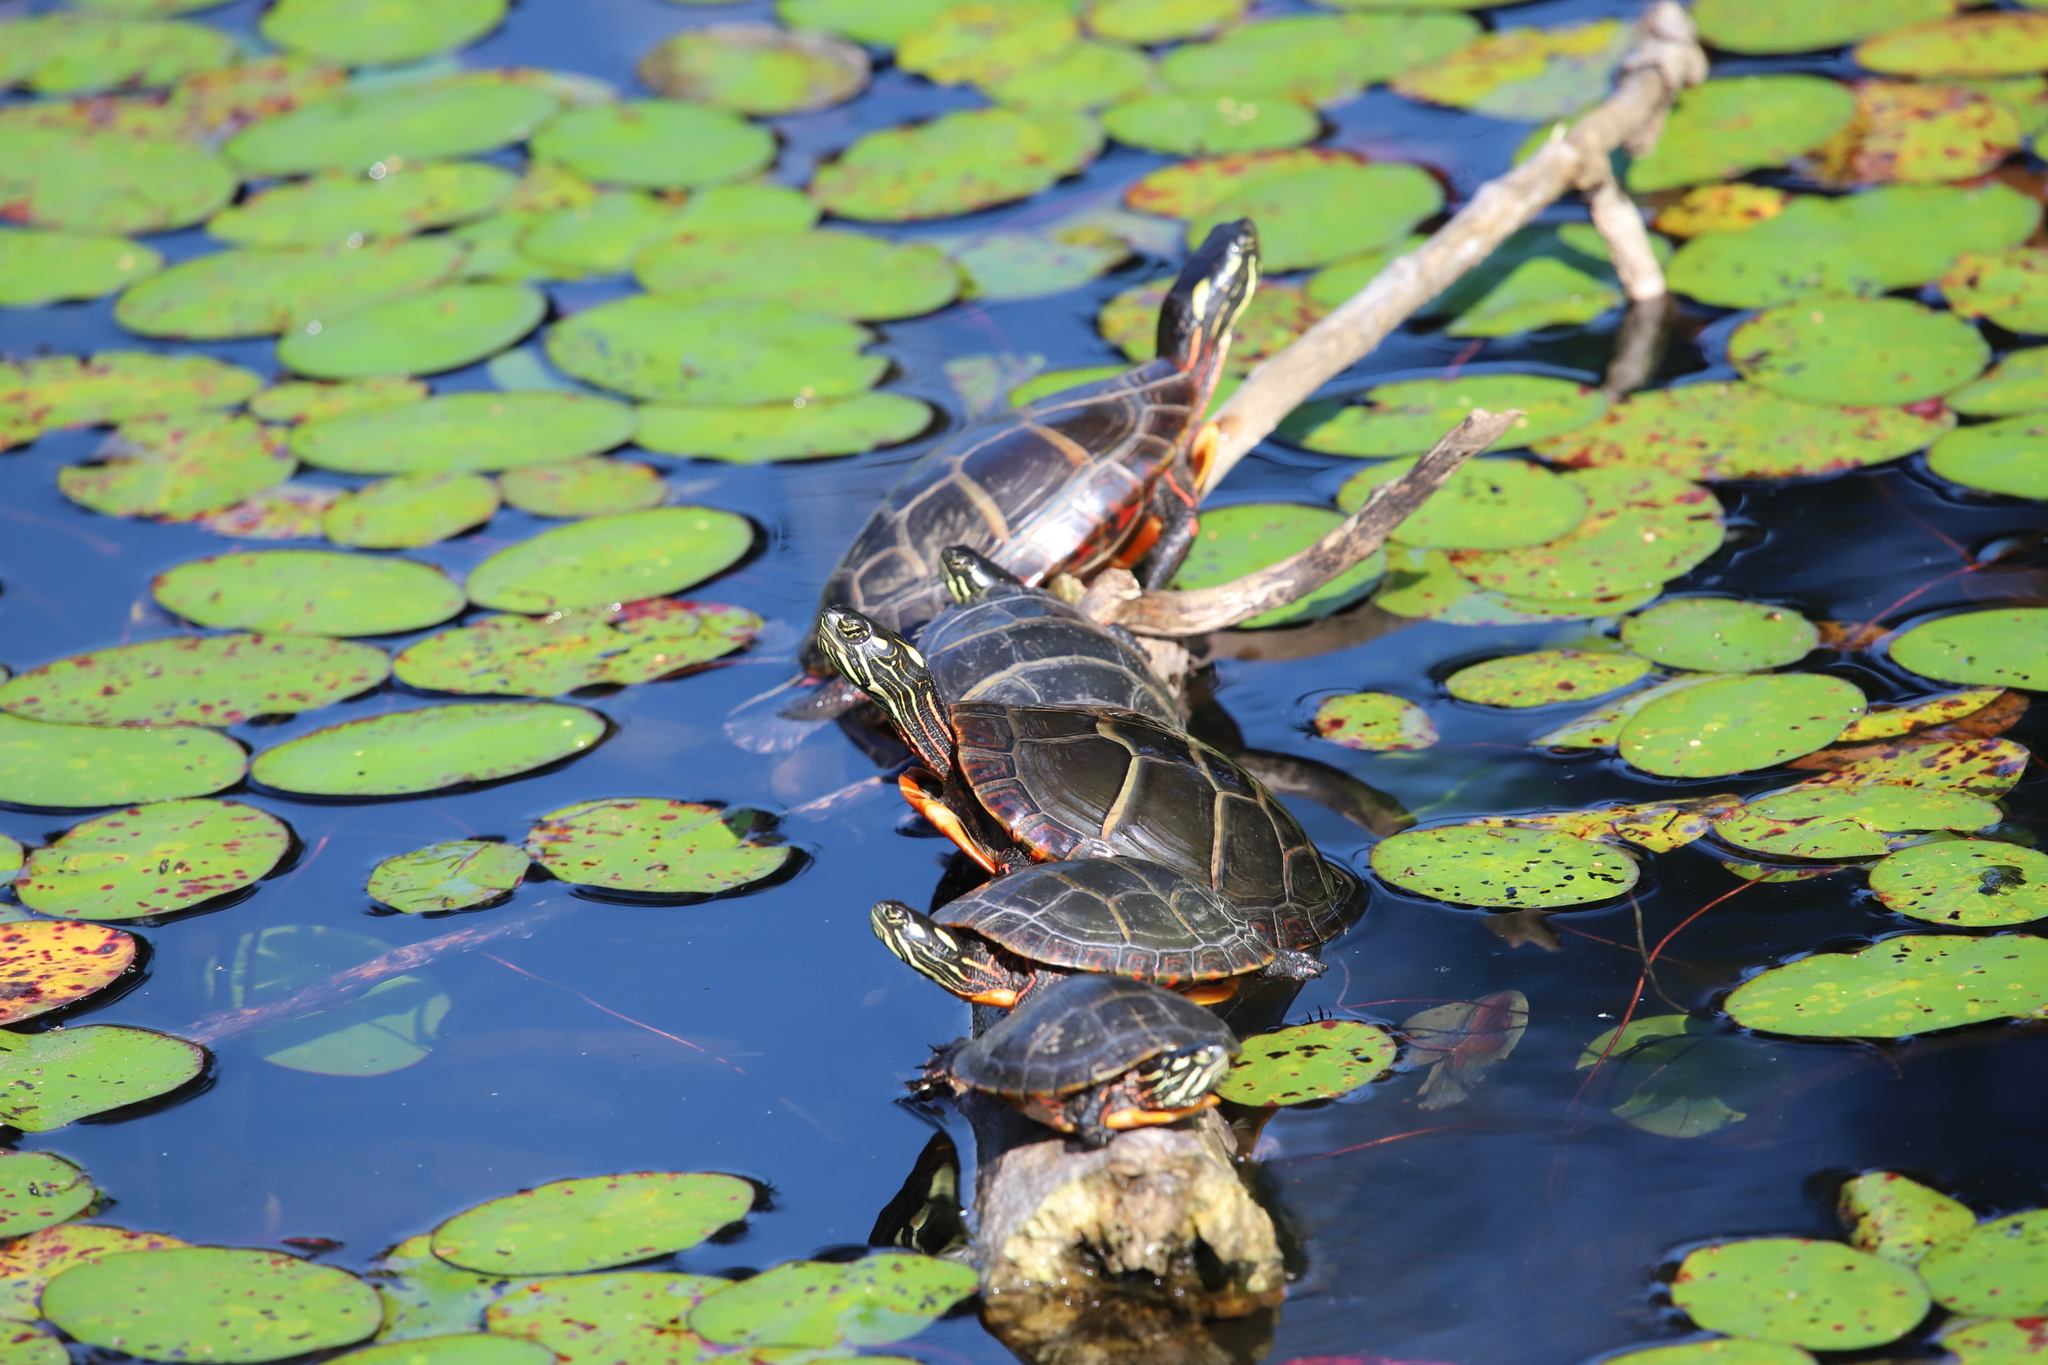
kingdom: Animalia
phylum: Chordata
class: Testudines
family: Emydidae
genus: Chrysemys
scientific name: Chrysemys picta
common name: Painted turtle
